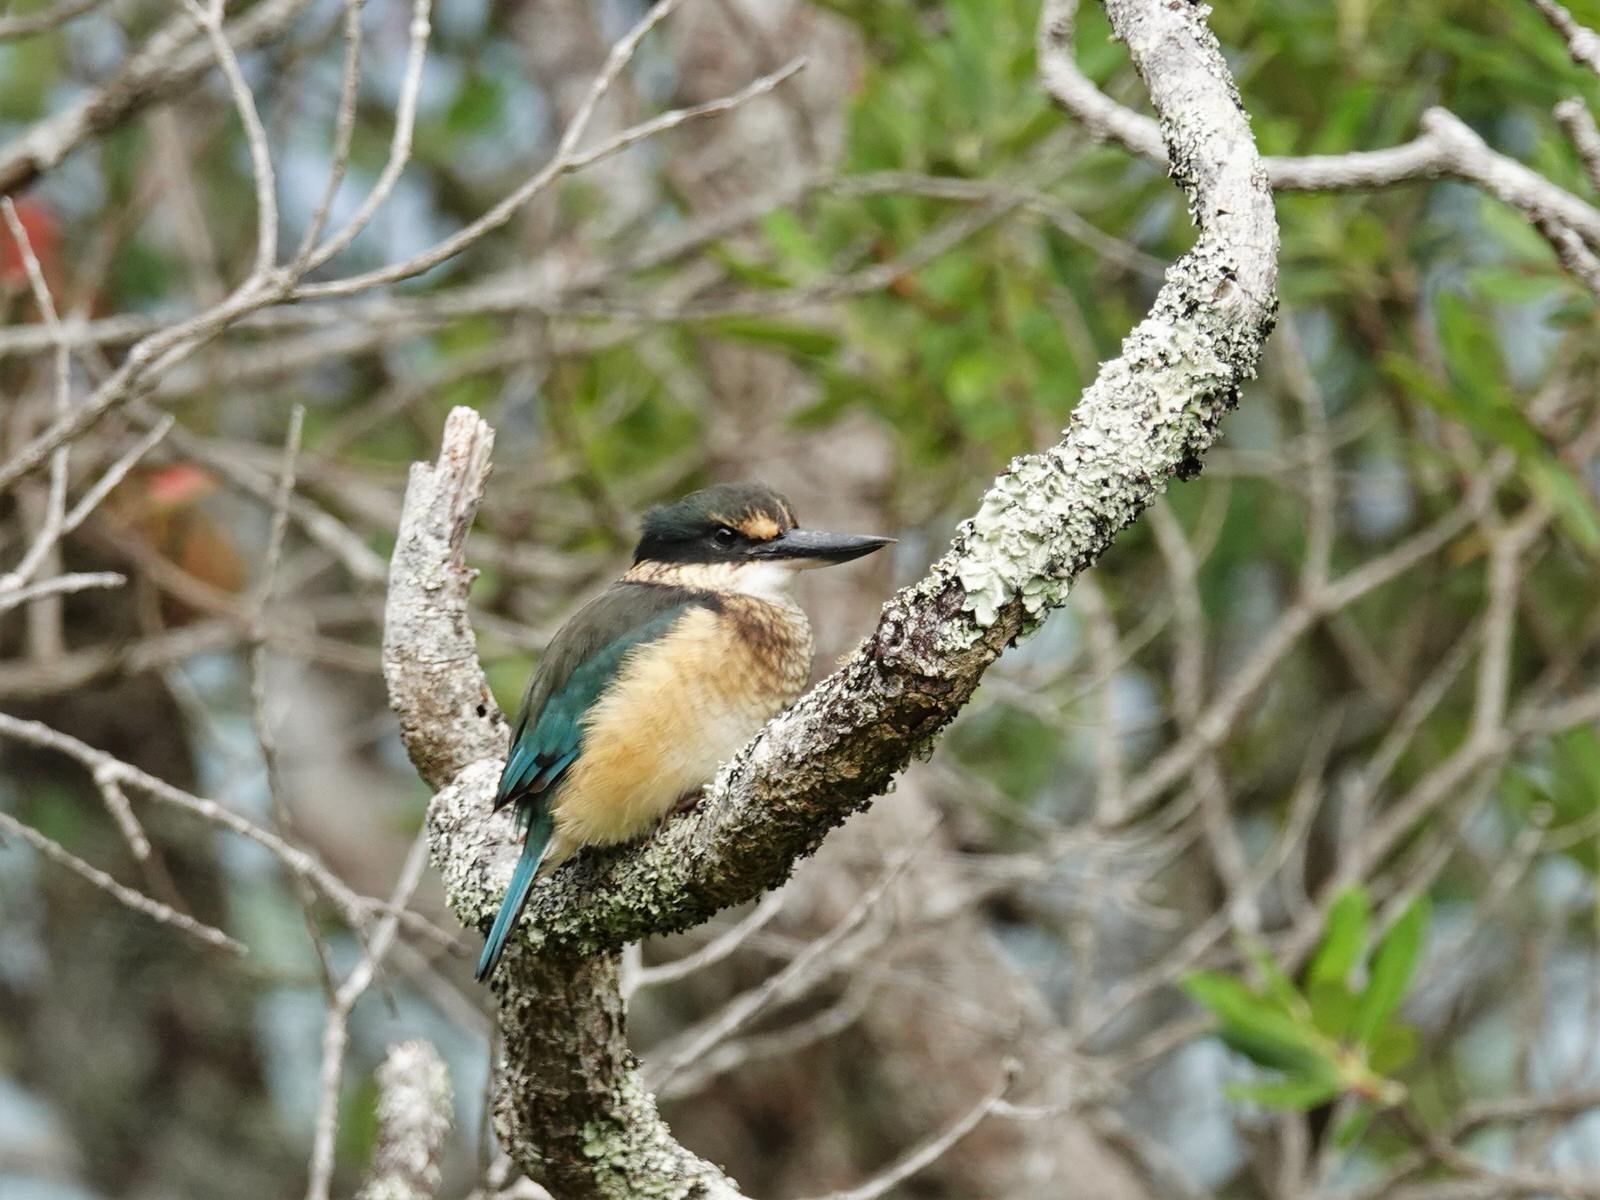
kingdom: Animalia
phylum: Chordata
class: Aves
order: Coraciiformes
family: Alcedinidae
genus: Todiramphus
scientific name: Todiramphus sanctus
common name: Sacred kingfisher
